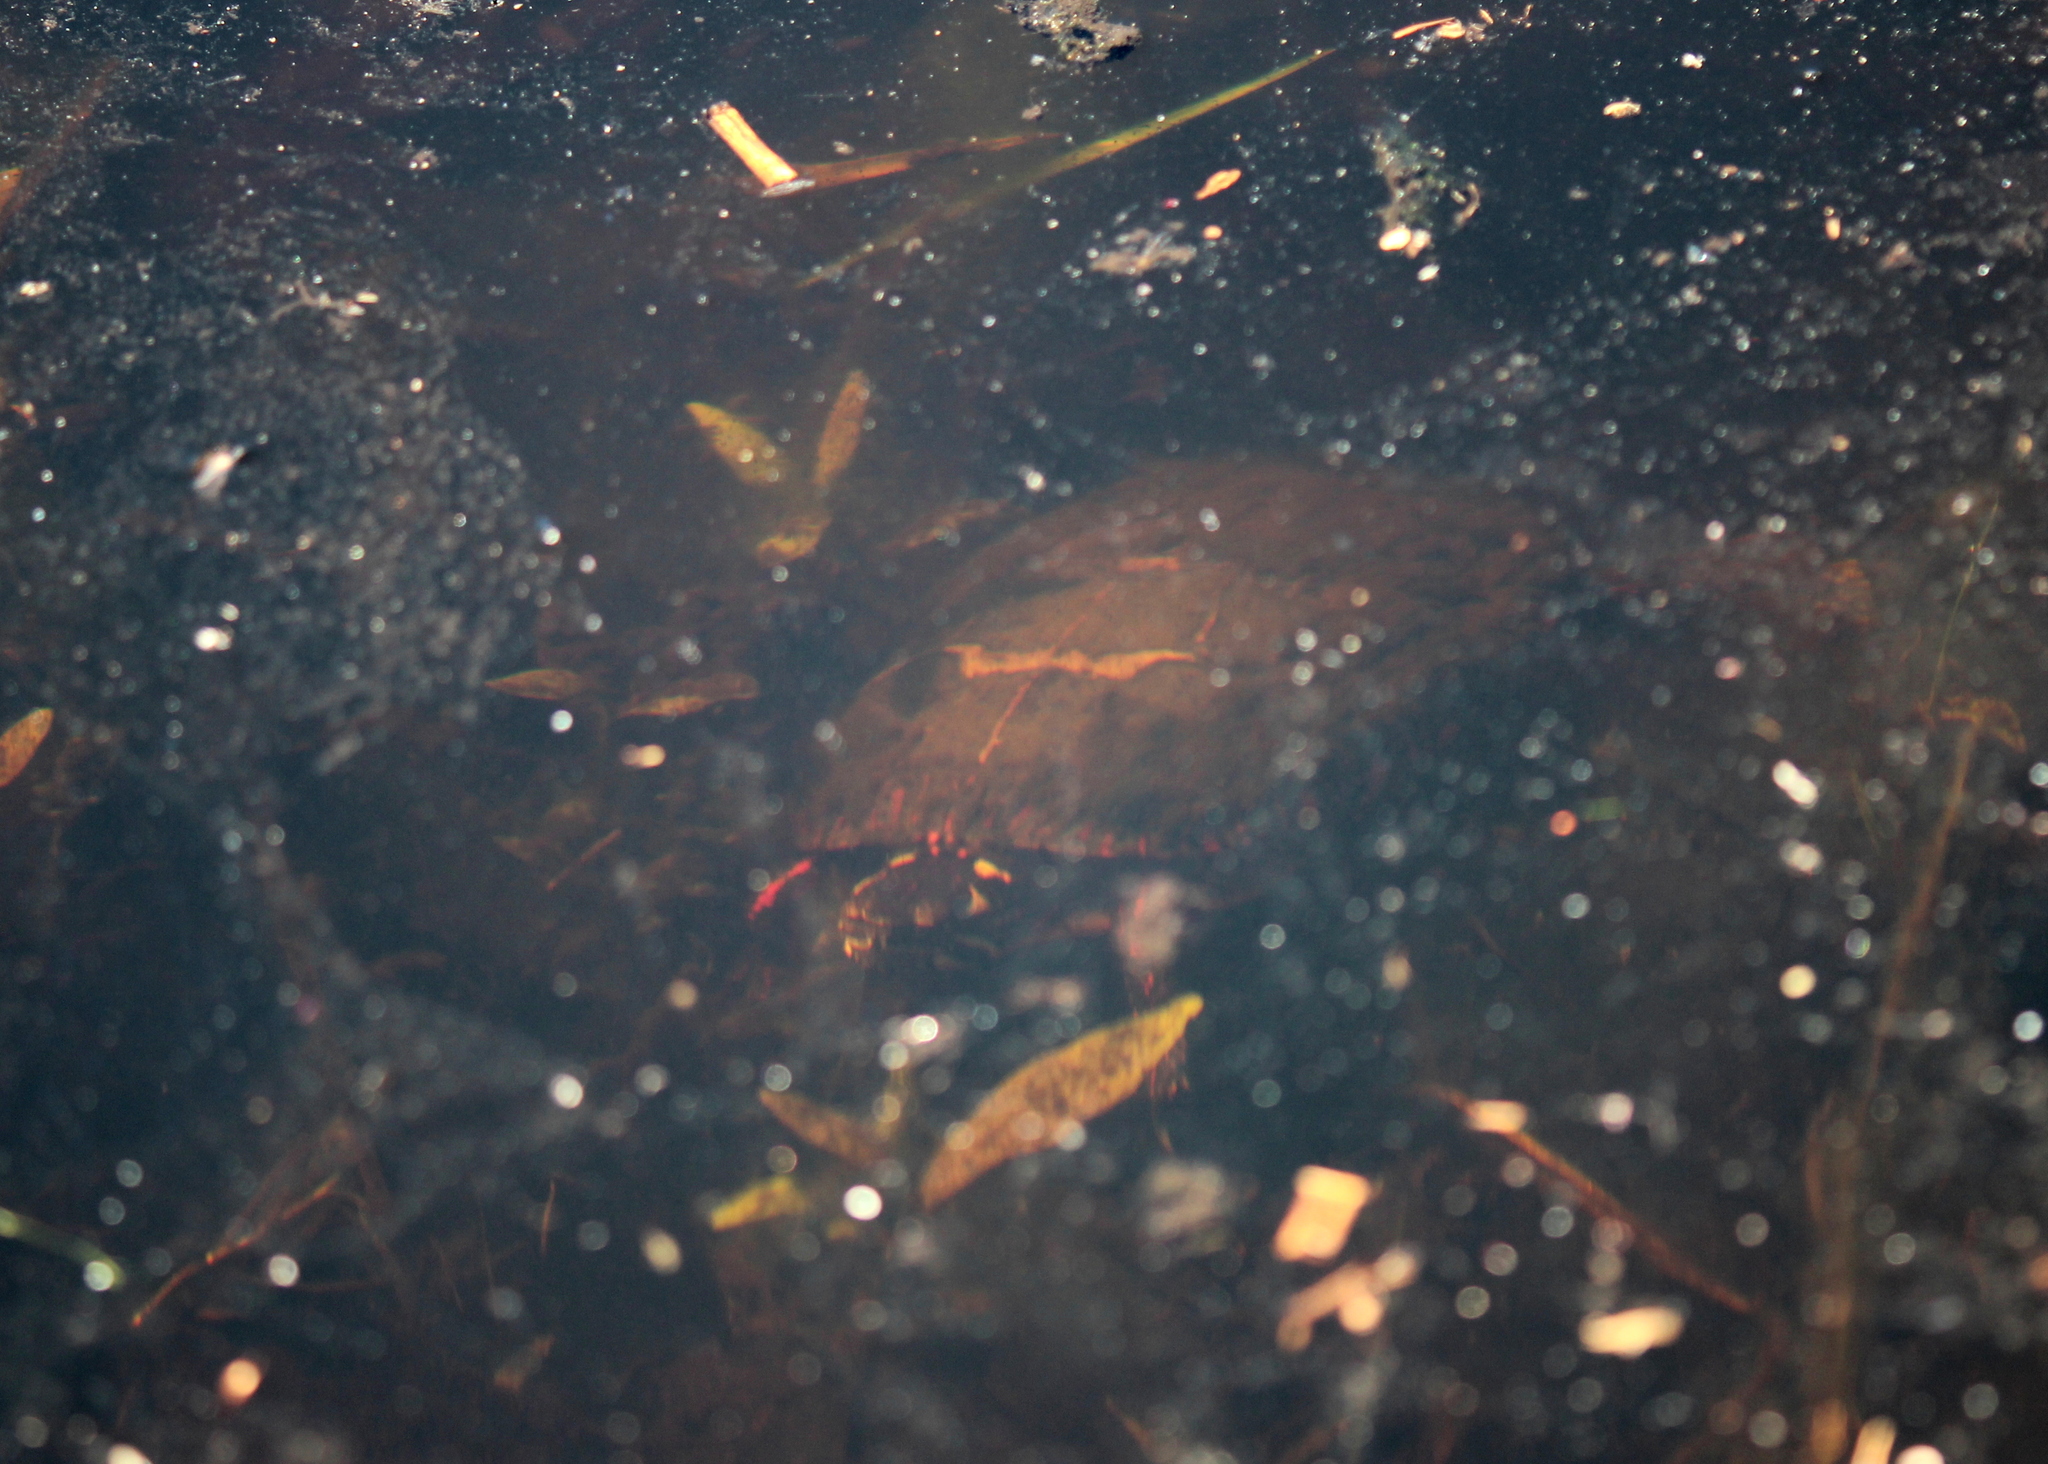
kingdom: Animalia
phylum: Chordata
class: Testudines
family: Emydidae
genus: Chrysemys
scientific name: Chrysemys picta
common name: Painted turtle
